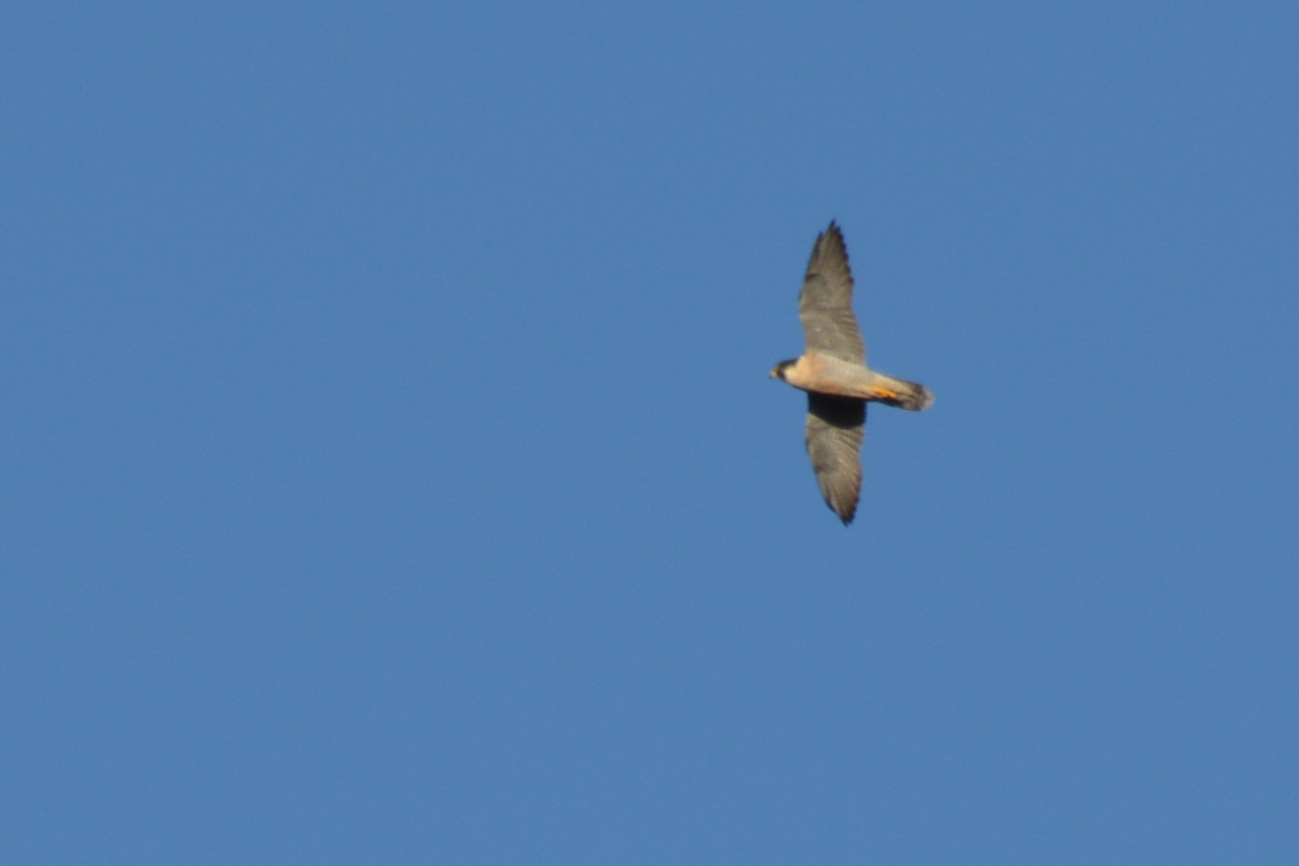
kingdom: Animalia
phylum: Chordata
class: Aves
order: Falconiformes
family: Falconidae
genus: Falco
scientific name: Falco peregrinus
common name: Peregrine falcon
